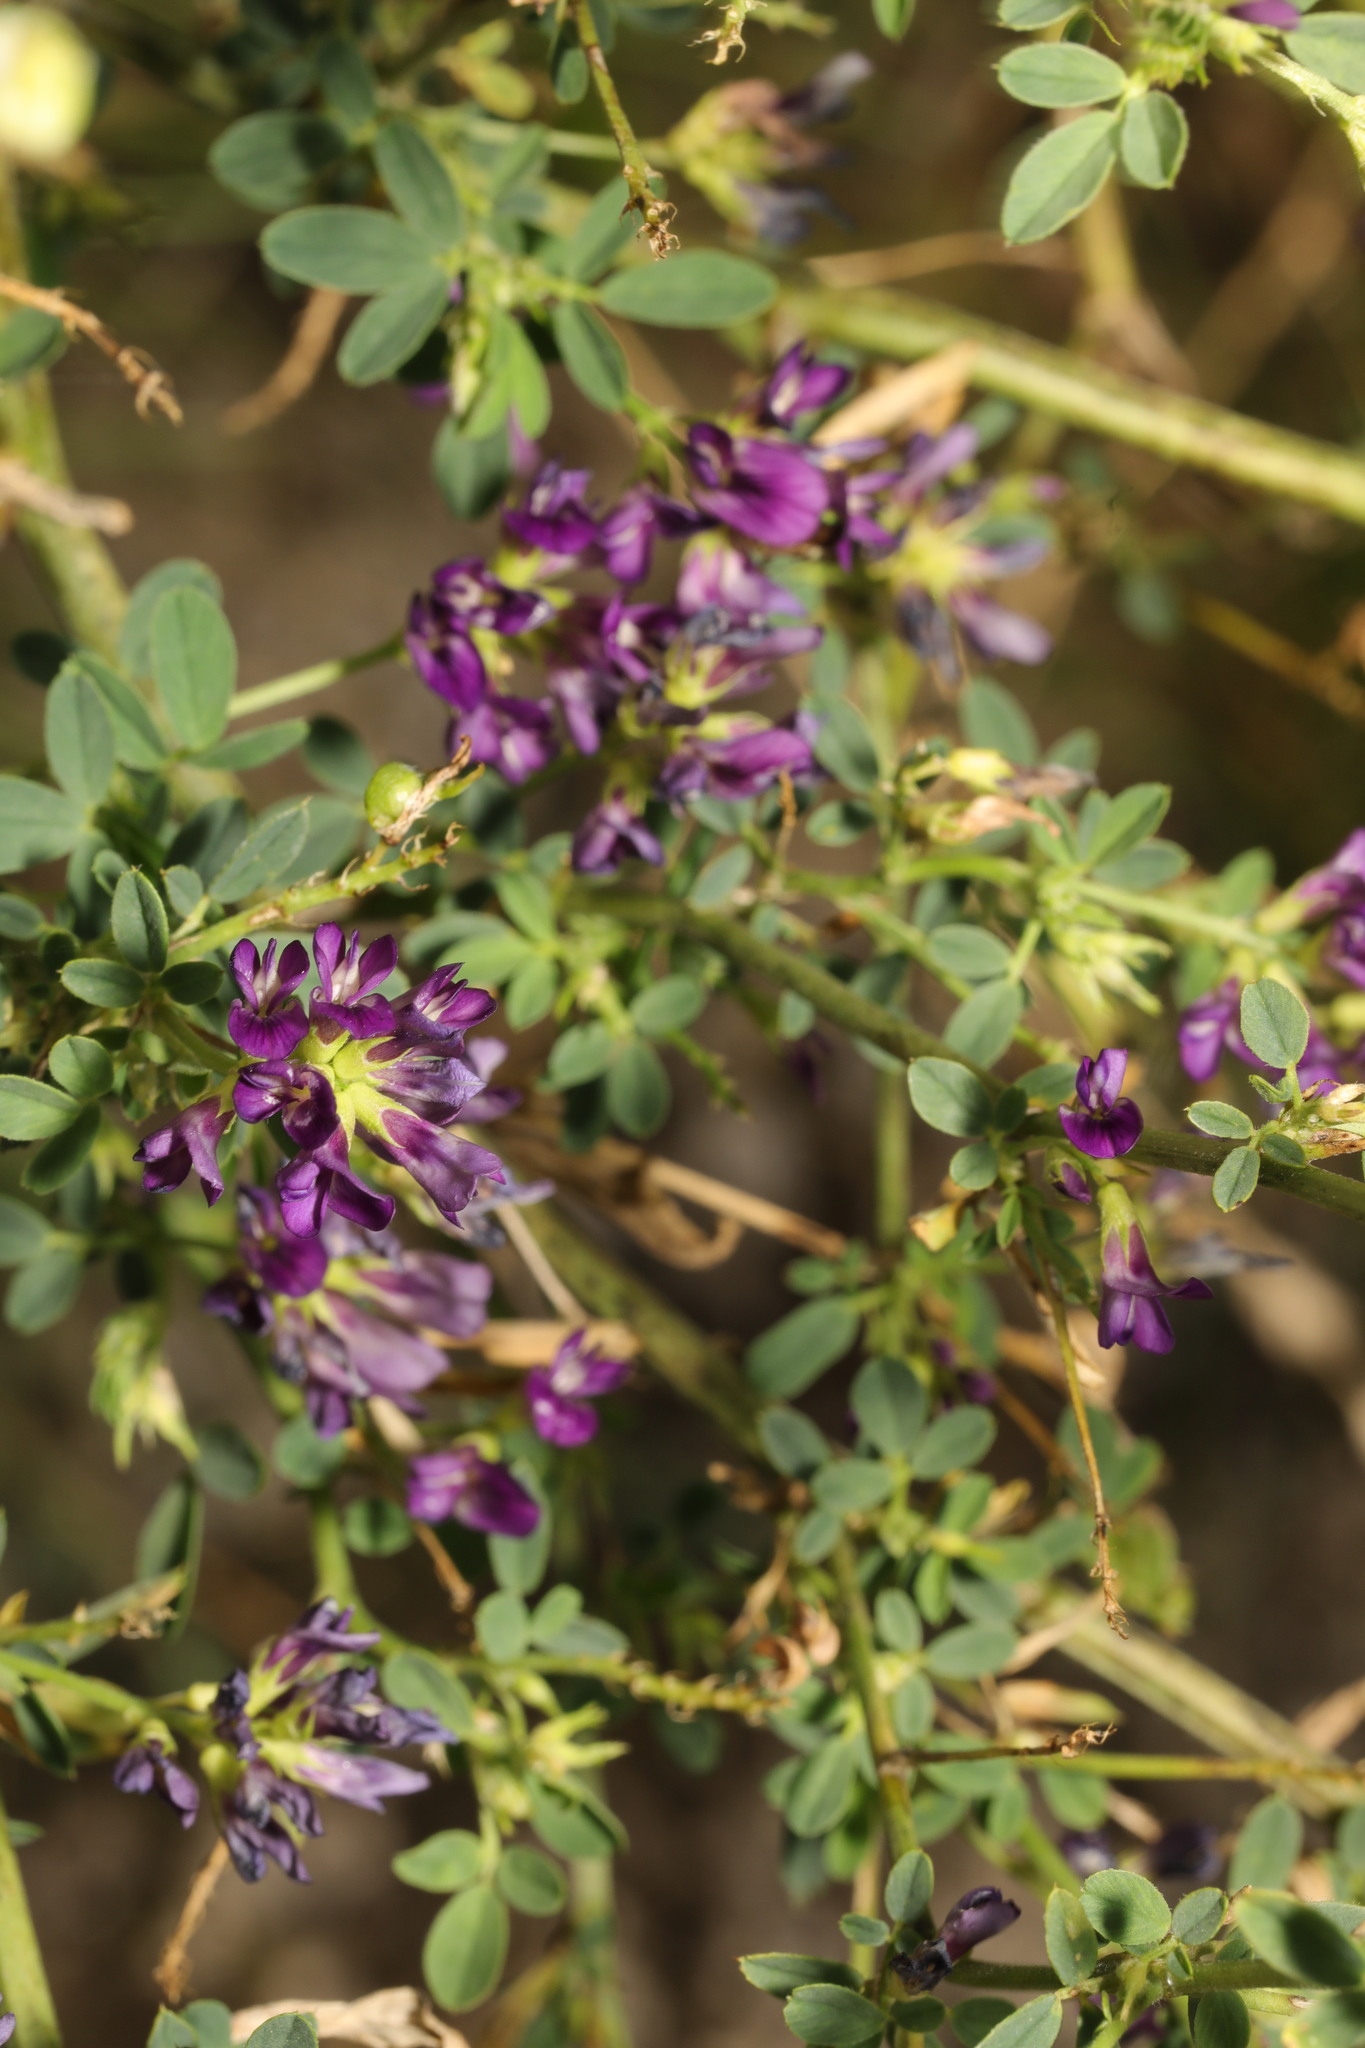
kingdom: Plantae
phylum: Tracheophyta
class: Magnoliopsida
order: Fabales
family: Fabaceae
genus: Medicago
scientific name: Medicago sativa
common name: Alfalfa
